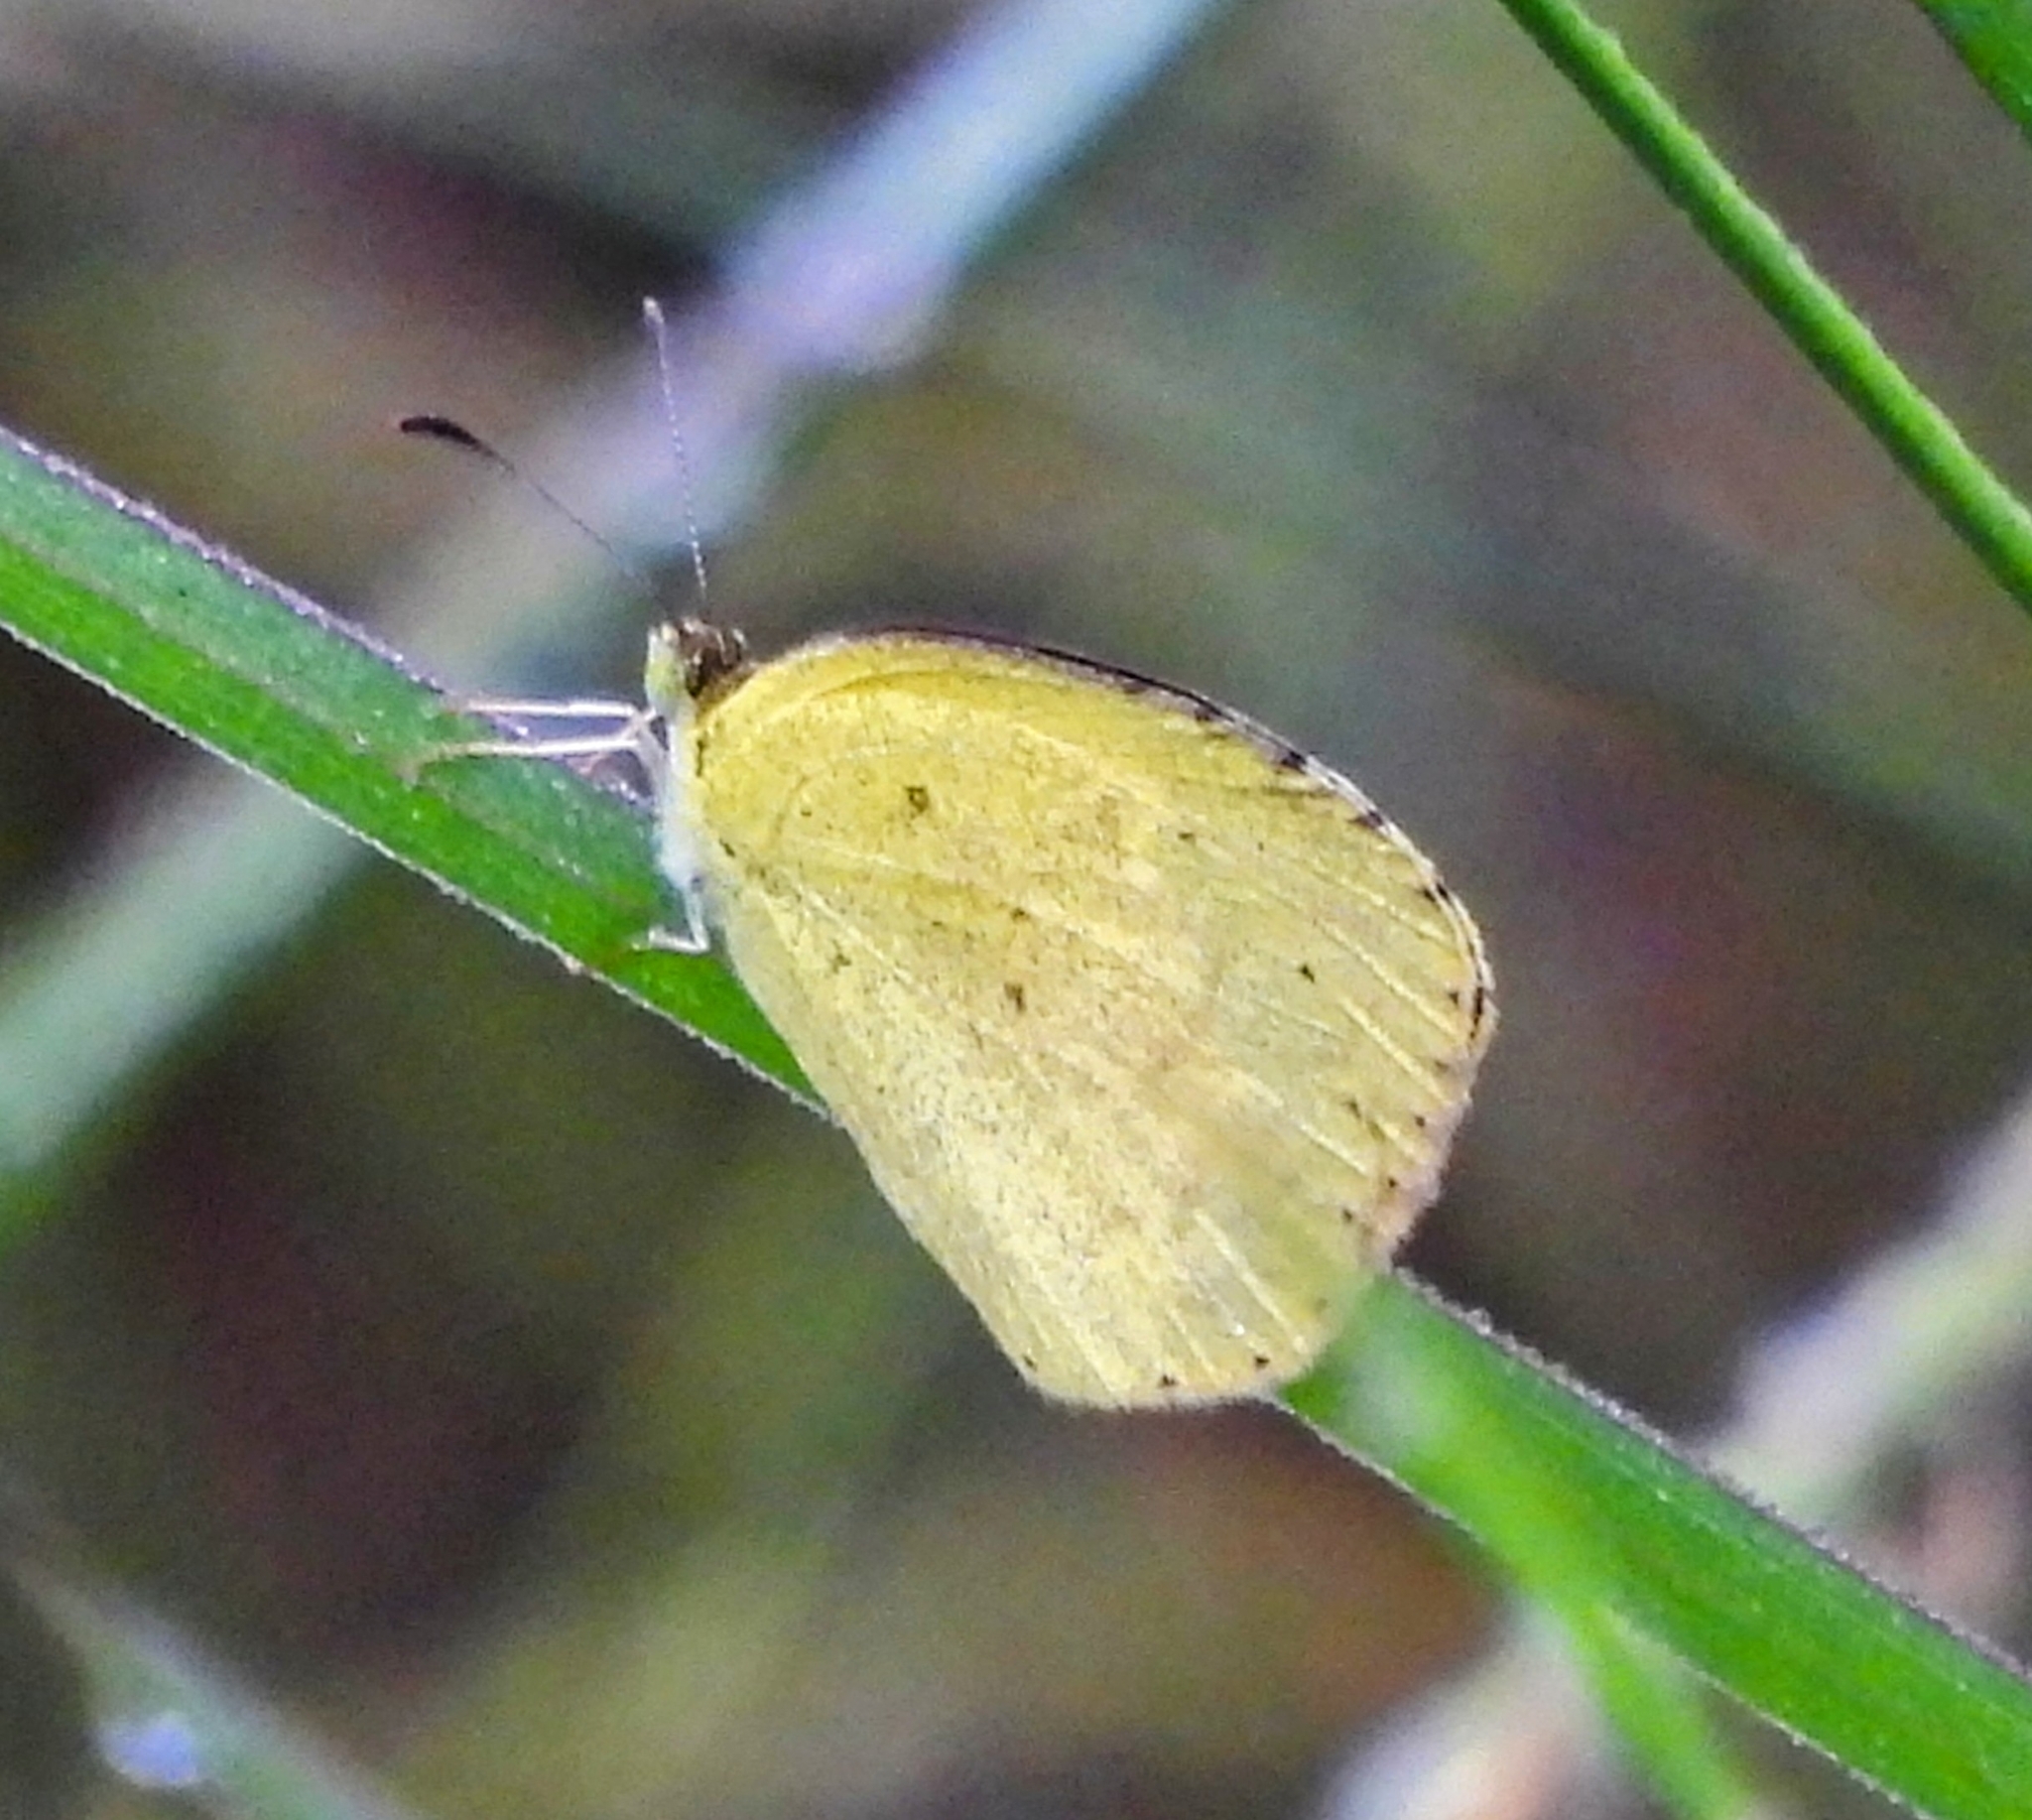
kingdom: Animalia
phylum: Arthropoda
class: Insecta
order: Lepidoptera
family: Pieridae
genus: Eurema
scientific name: Eurema brigitta
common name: Small grass yellow
